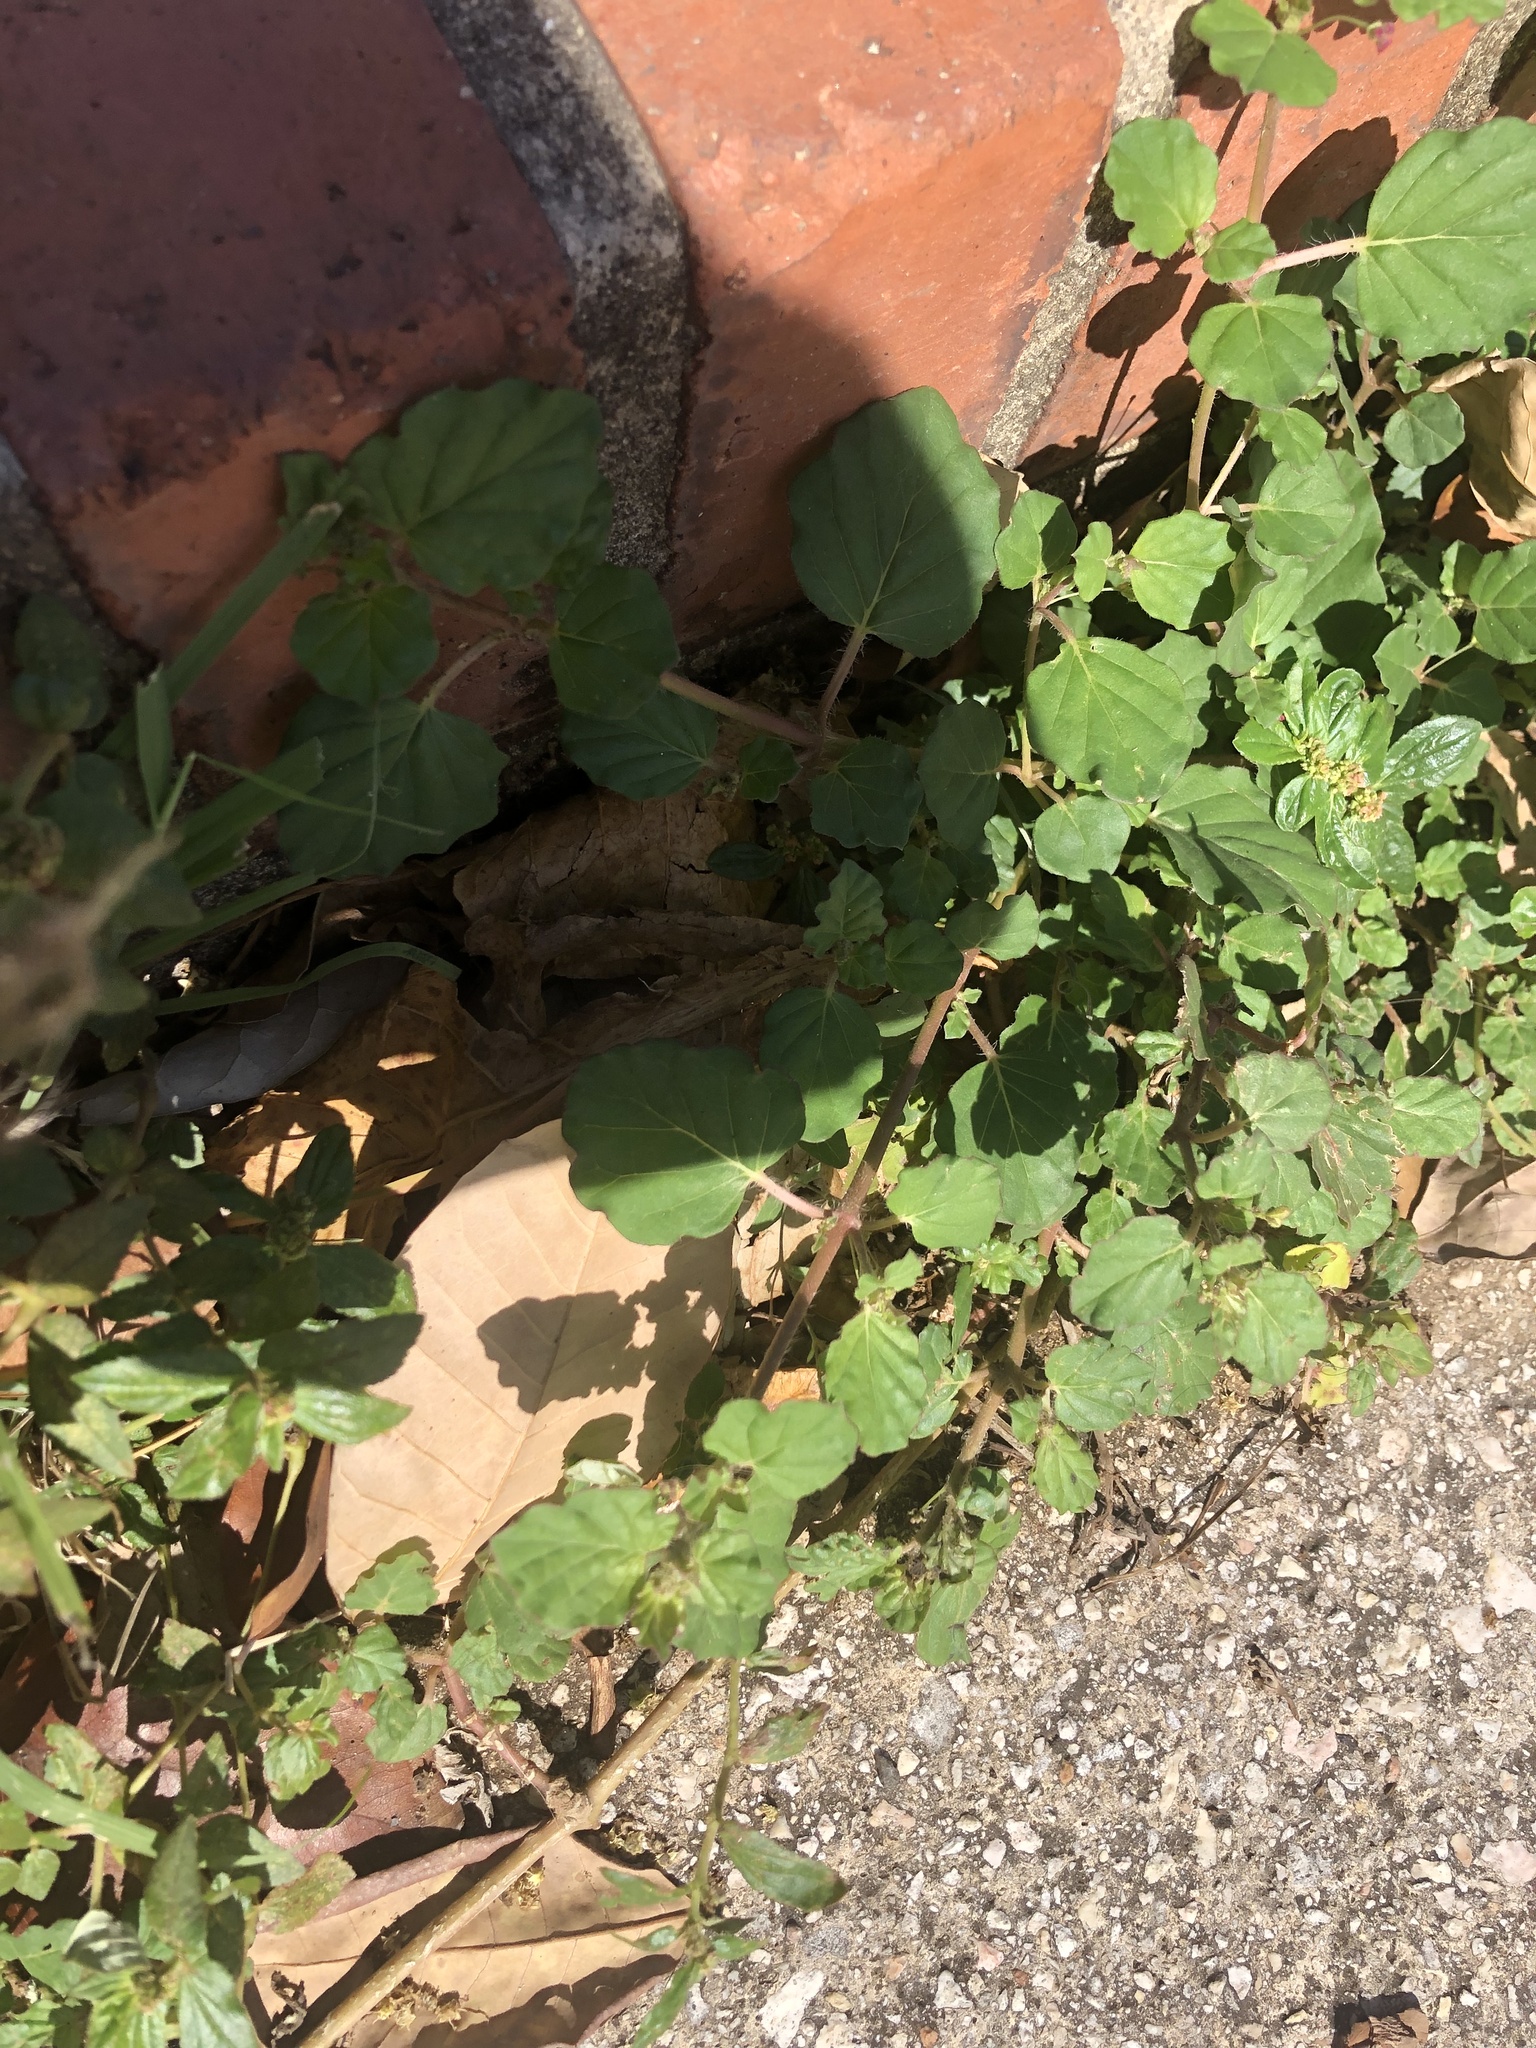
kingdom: Plantae
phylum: Tracheophyta
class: Magnoliopsida
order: Caryophyllales
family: Nyctaginaceae
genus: Boerhavia
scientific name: Boerhavia coccinea
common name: Scarlet spiderling
